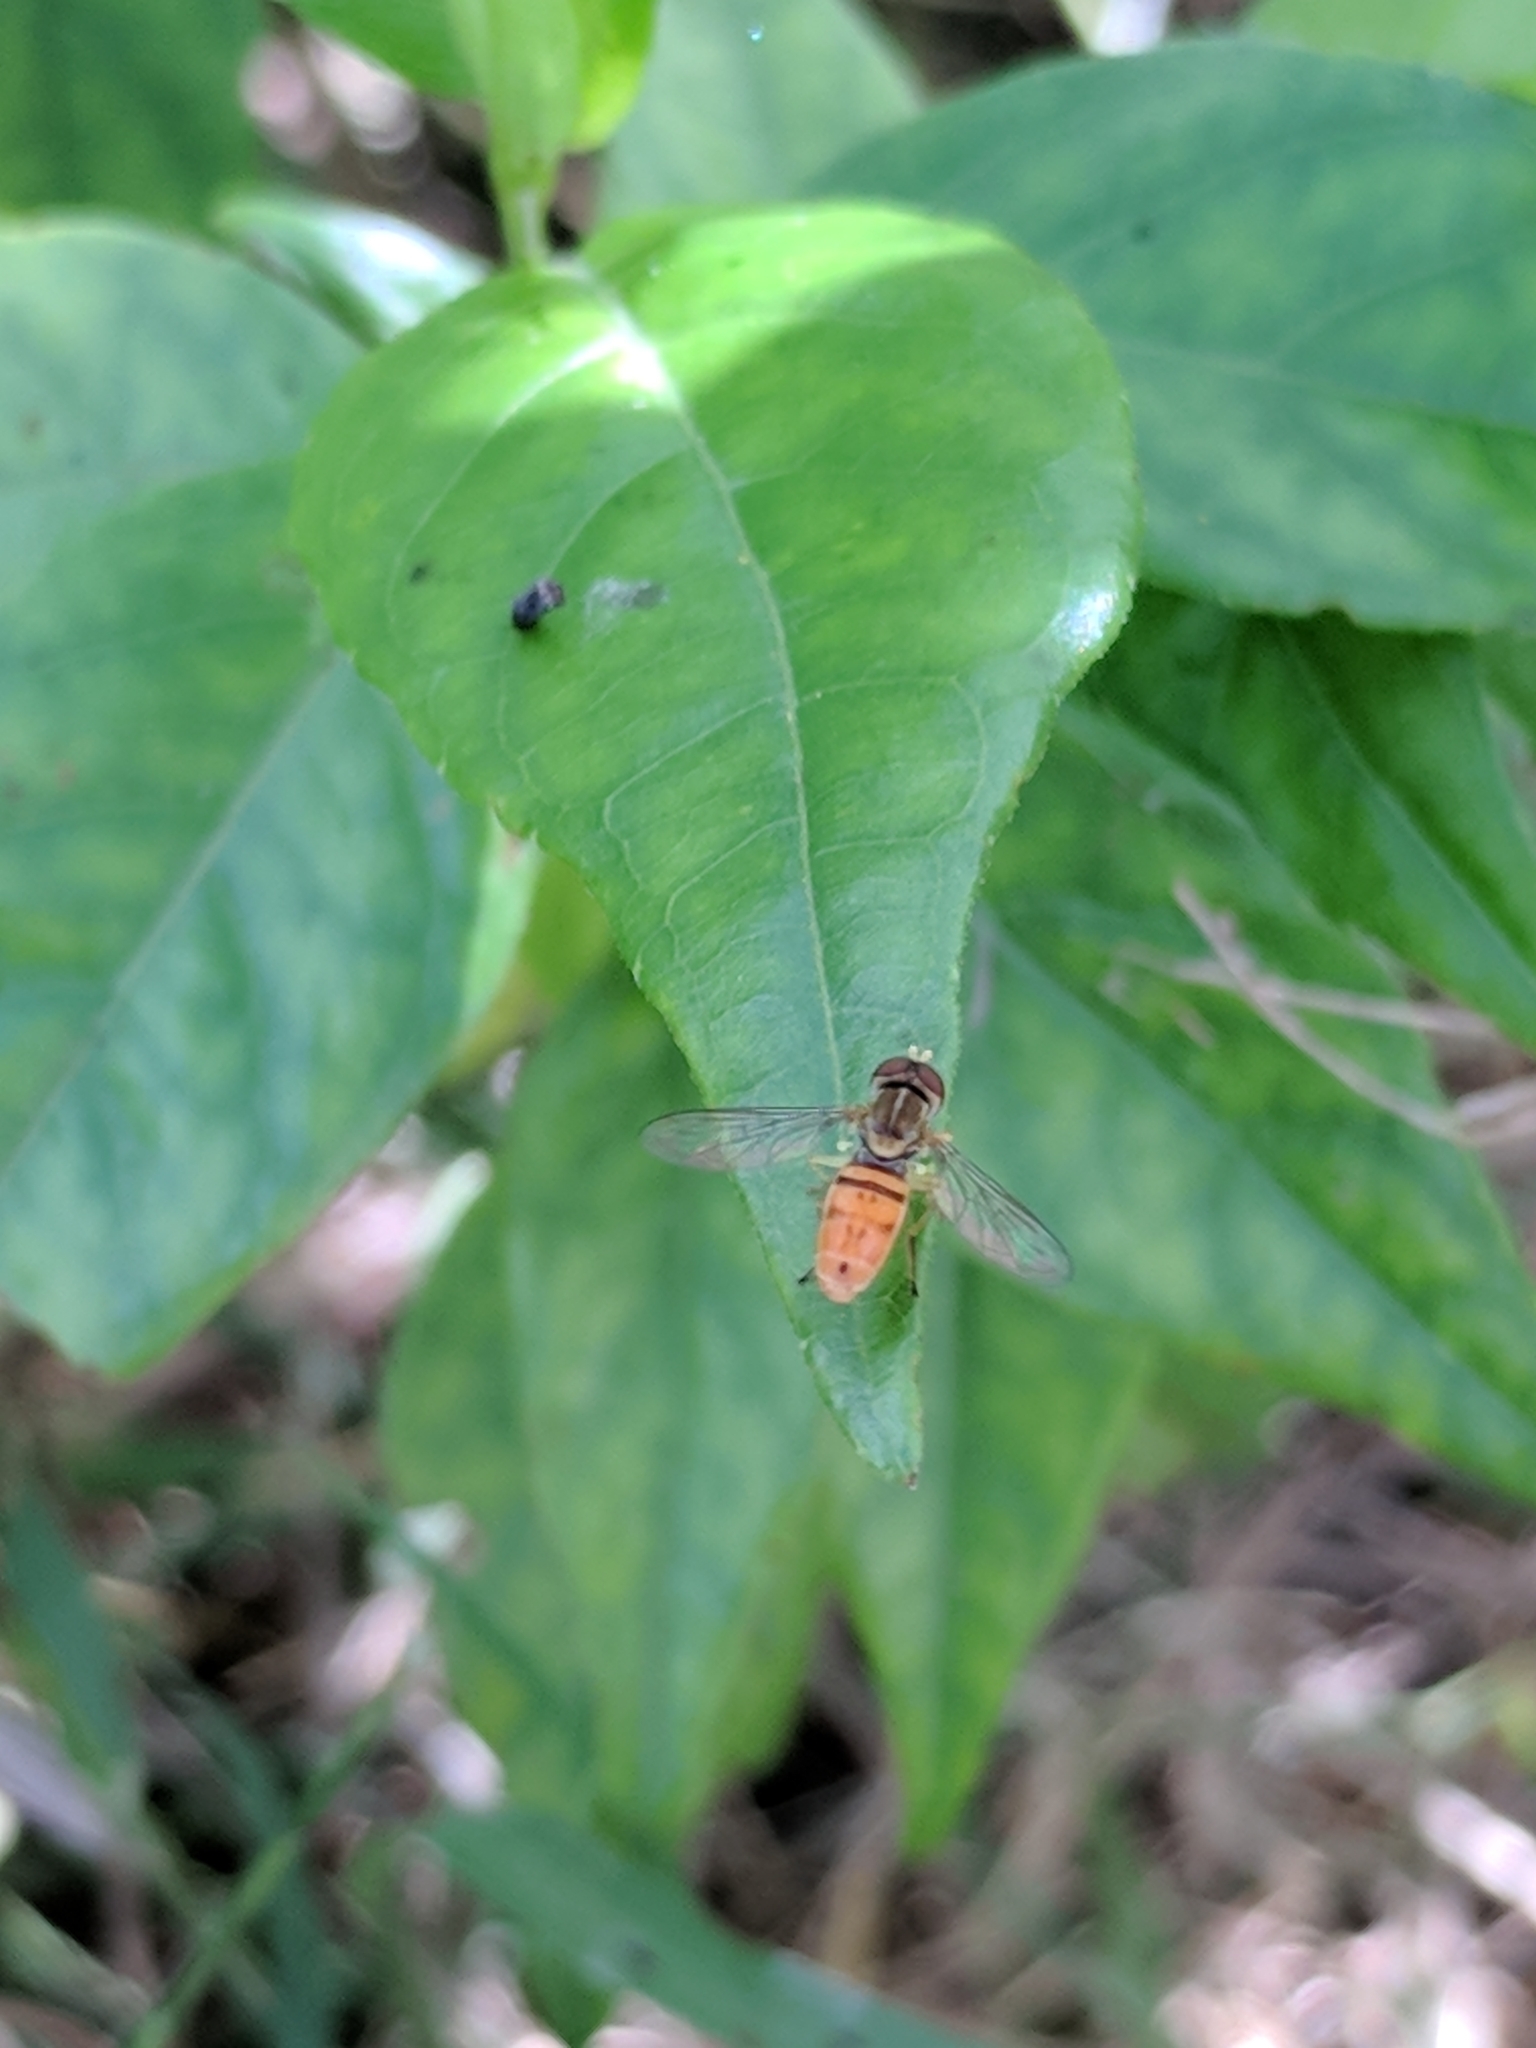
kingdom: Animalia
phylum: Arthropoda
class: Insecta
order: Diptera
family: Syrphidae
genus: Toxomerus
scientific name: Toxomerus marginatus
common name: Syrphid fly
